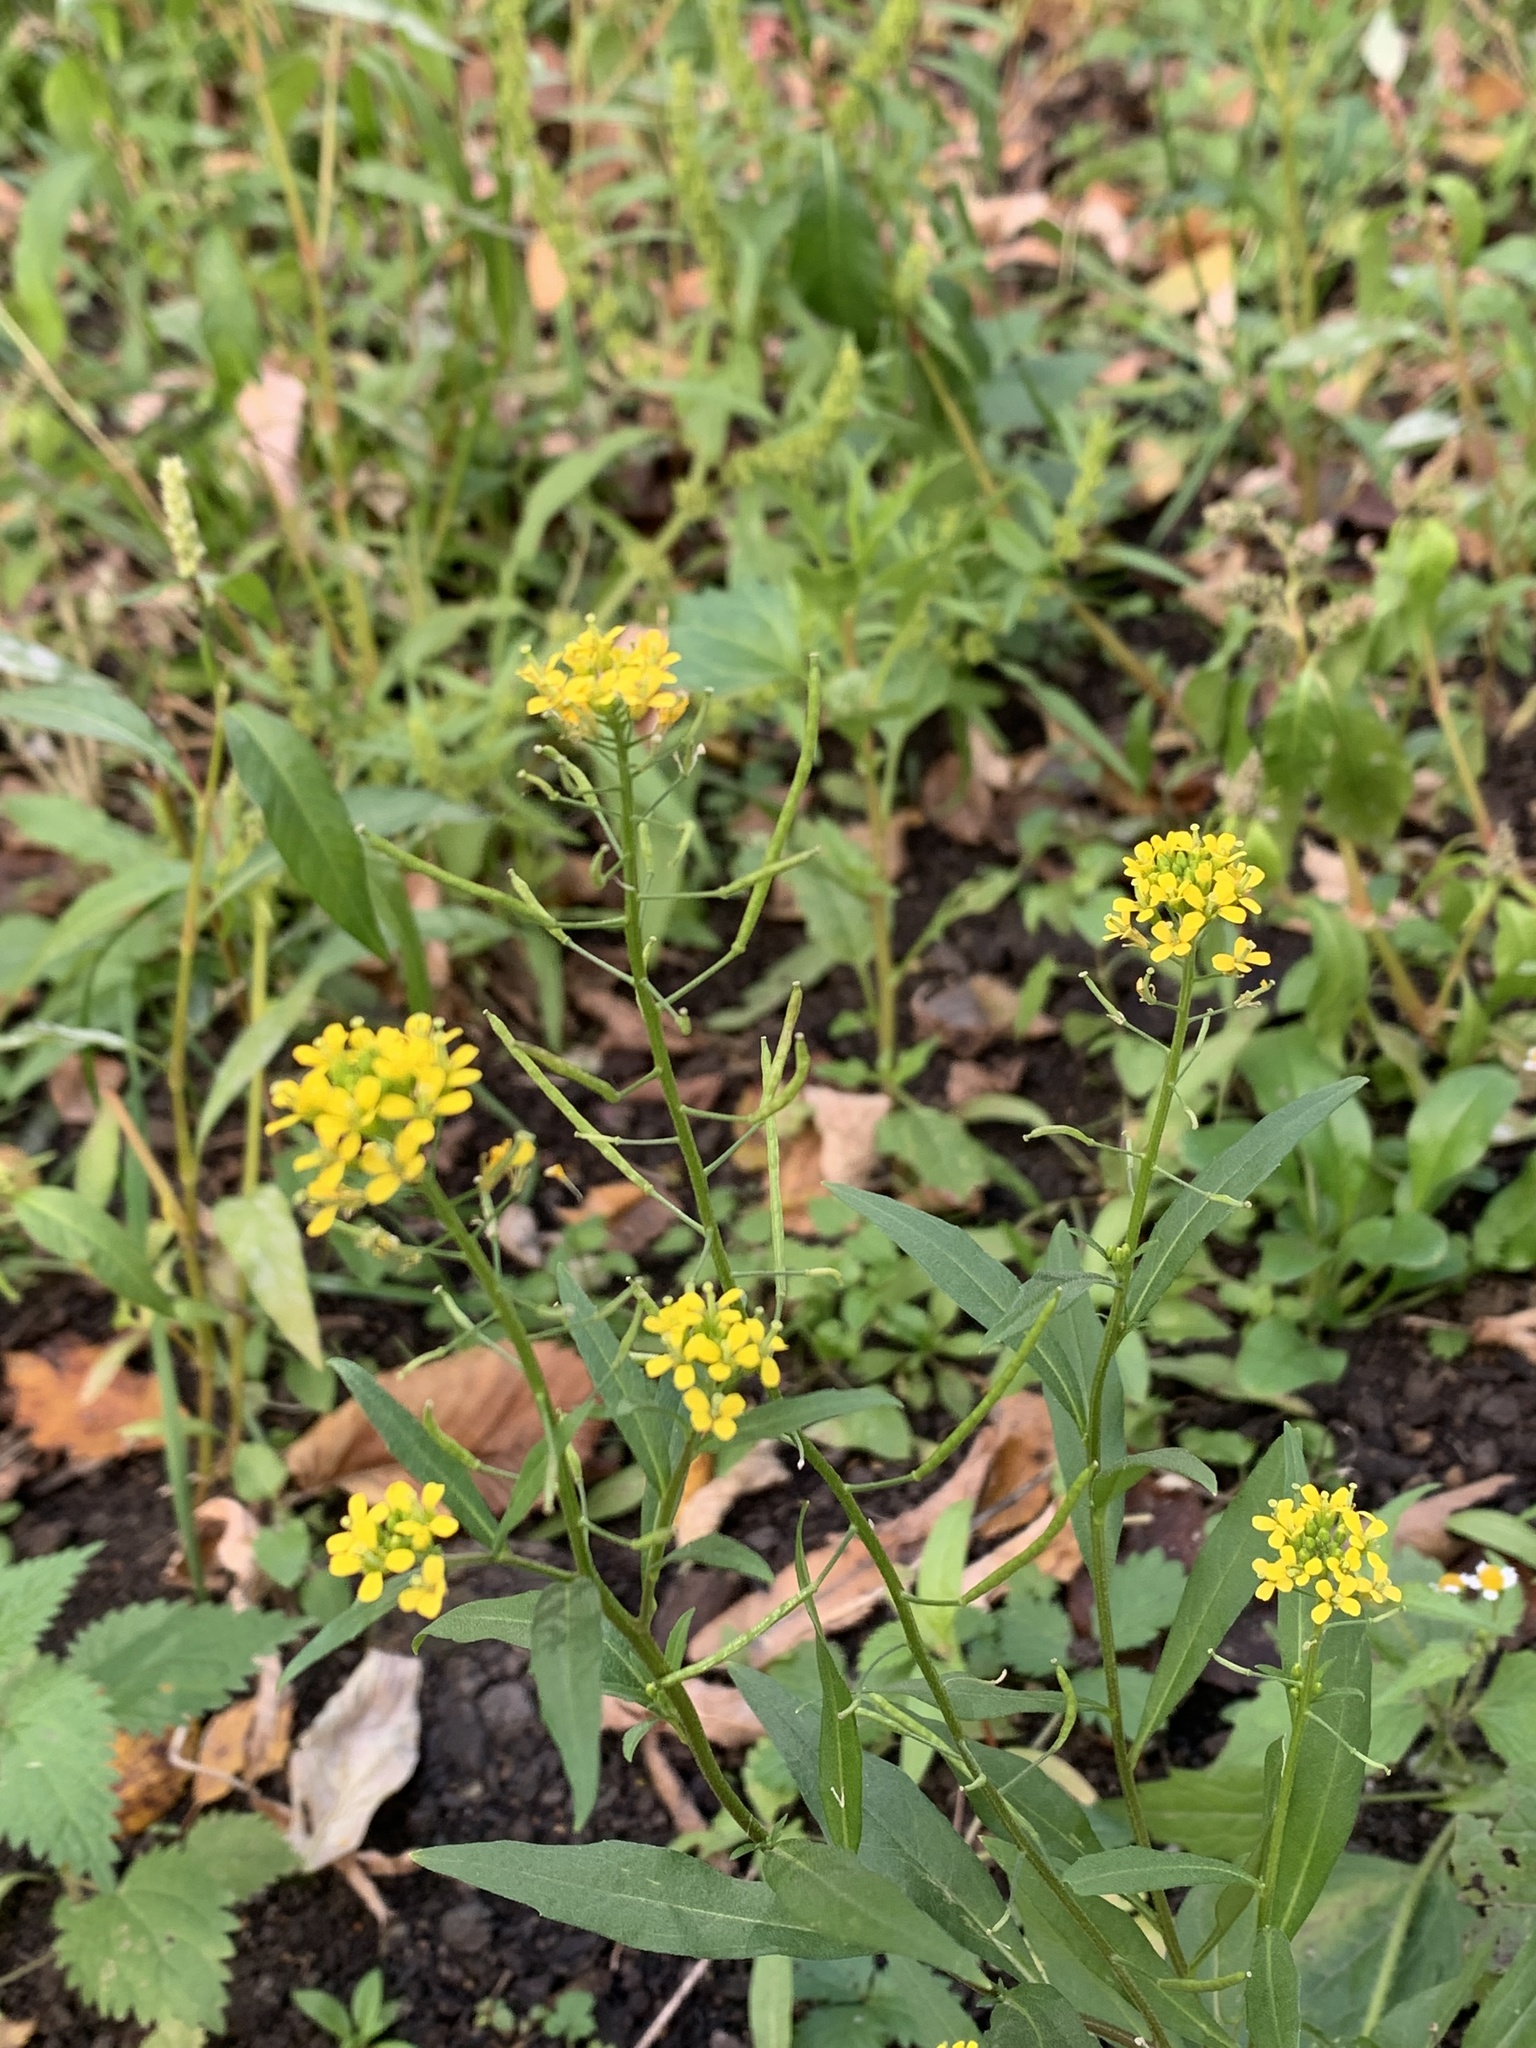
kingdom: Plantae
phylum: Tracheophyta
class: Magnoliopsida
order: Brassicales
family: Brassicaceae
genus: Erysimum
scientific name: Erysimum cheiranthoides
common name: Treacle mustard
